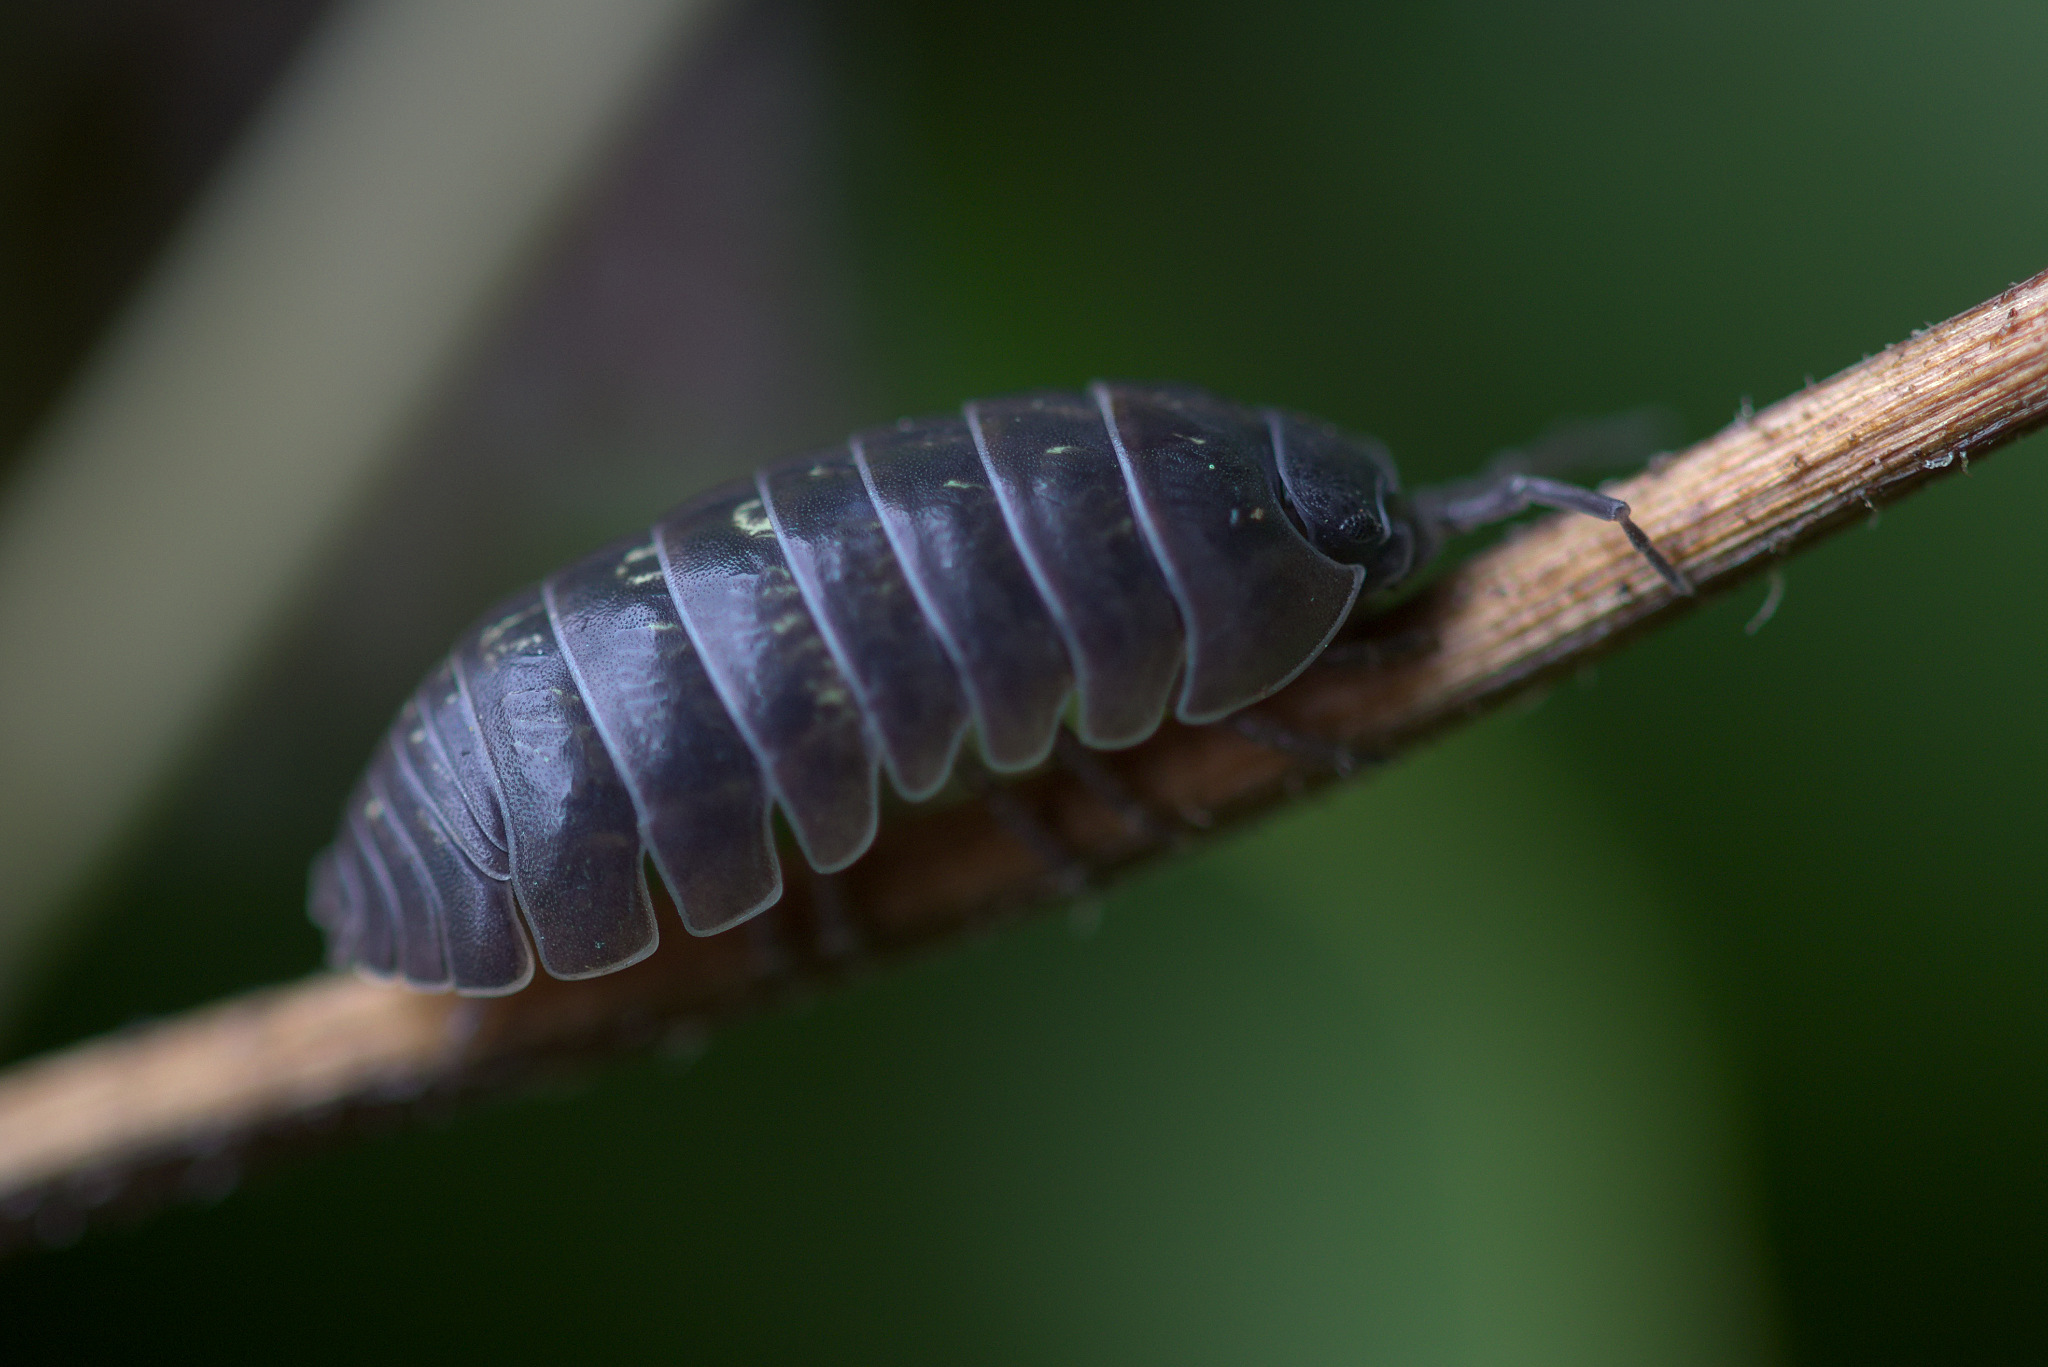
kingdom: Animalia
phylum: Arthropoda
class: Malacostraca
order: Isopoda
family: Armadillidiidae
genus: Armadillidium
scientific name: Armadillidium vulgare
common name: Common pill woodlouse
